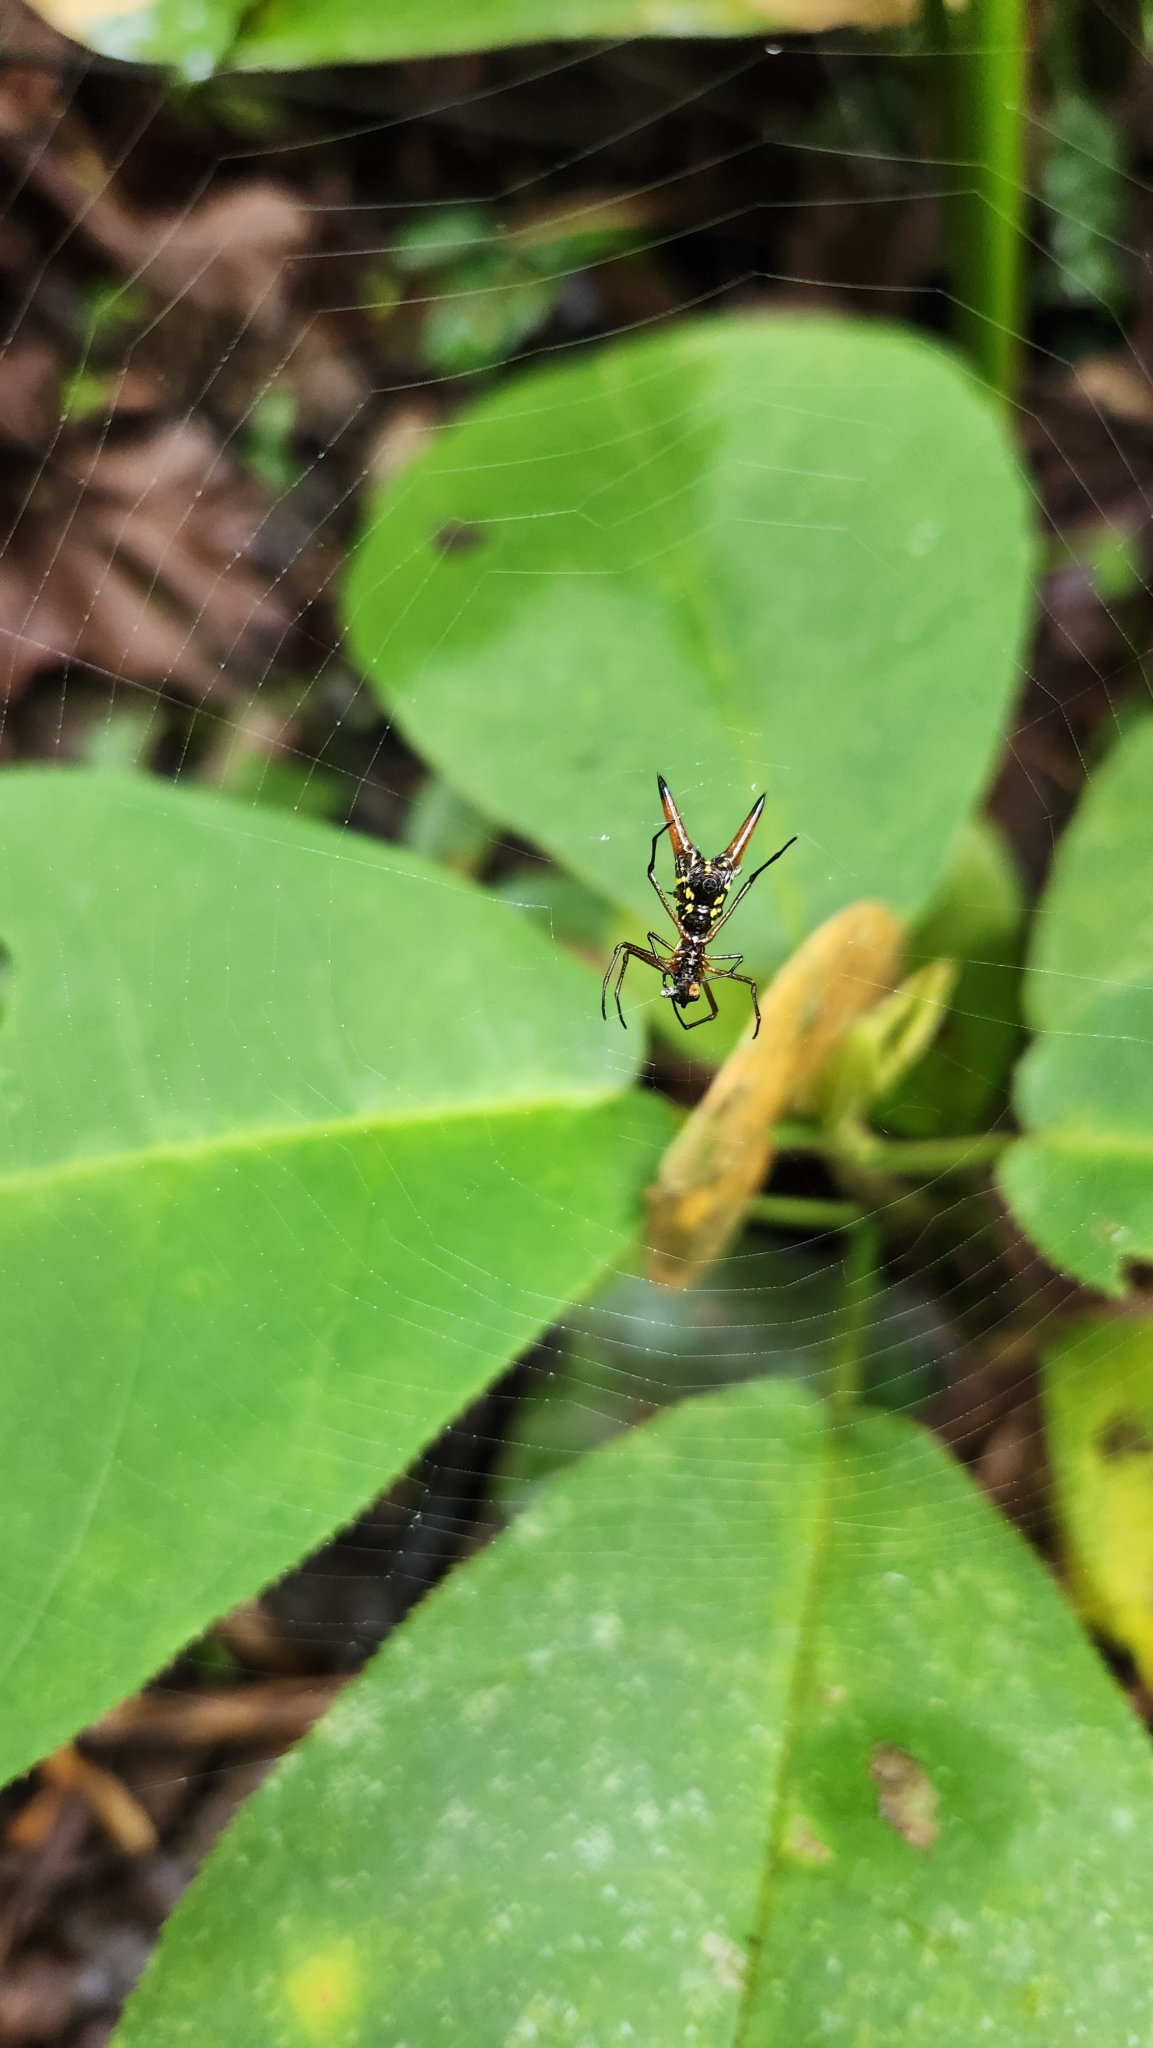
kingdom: Animalia
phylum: Arthropoda
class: Arachnida
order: Araneae
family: Araneidae
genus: Micrathena
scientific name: Micrathena sexspinosa
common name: Orb weavers
